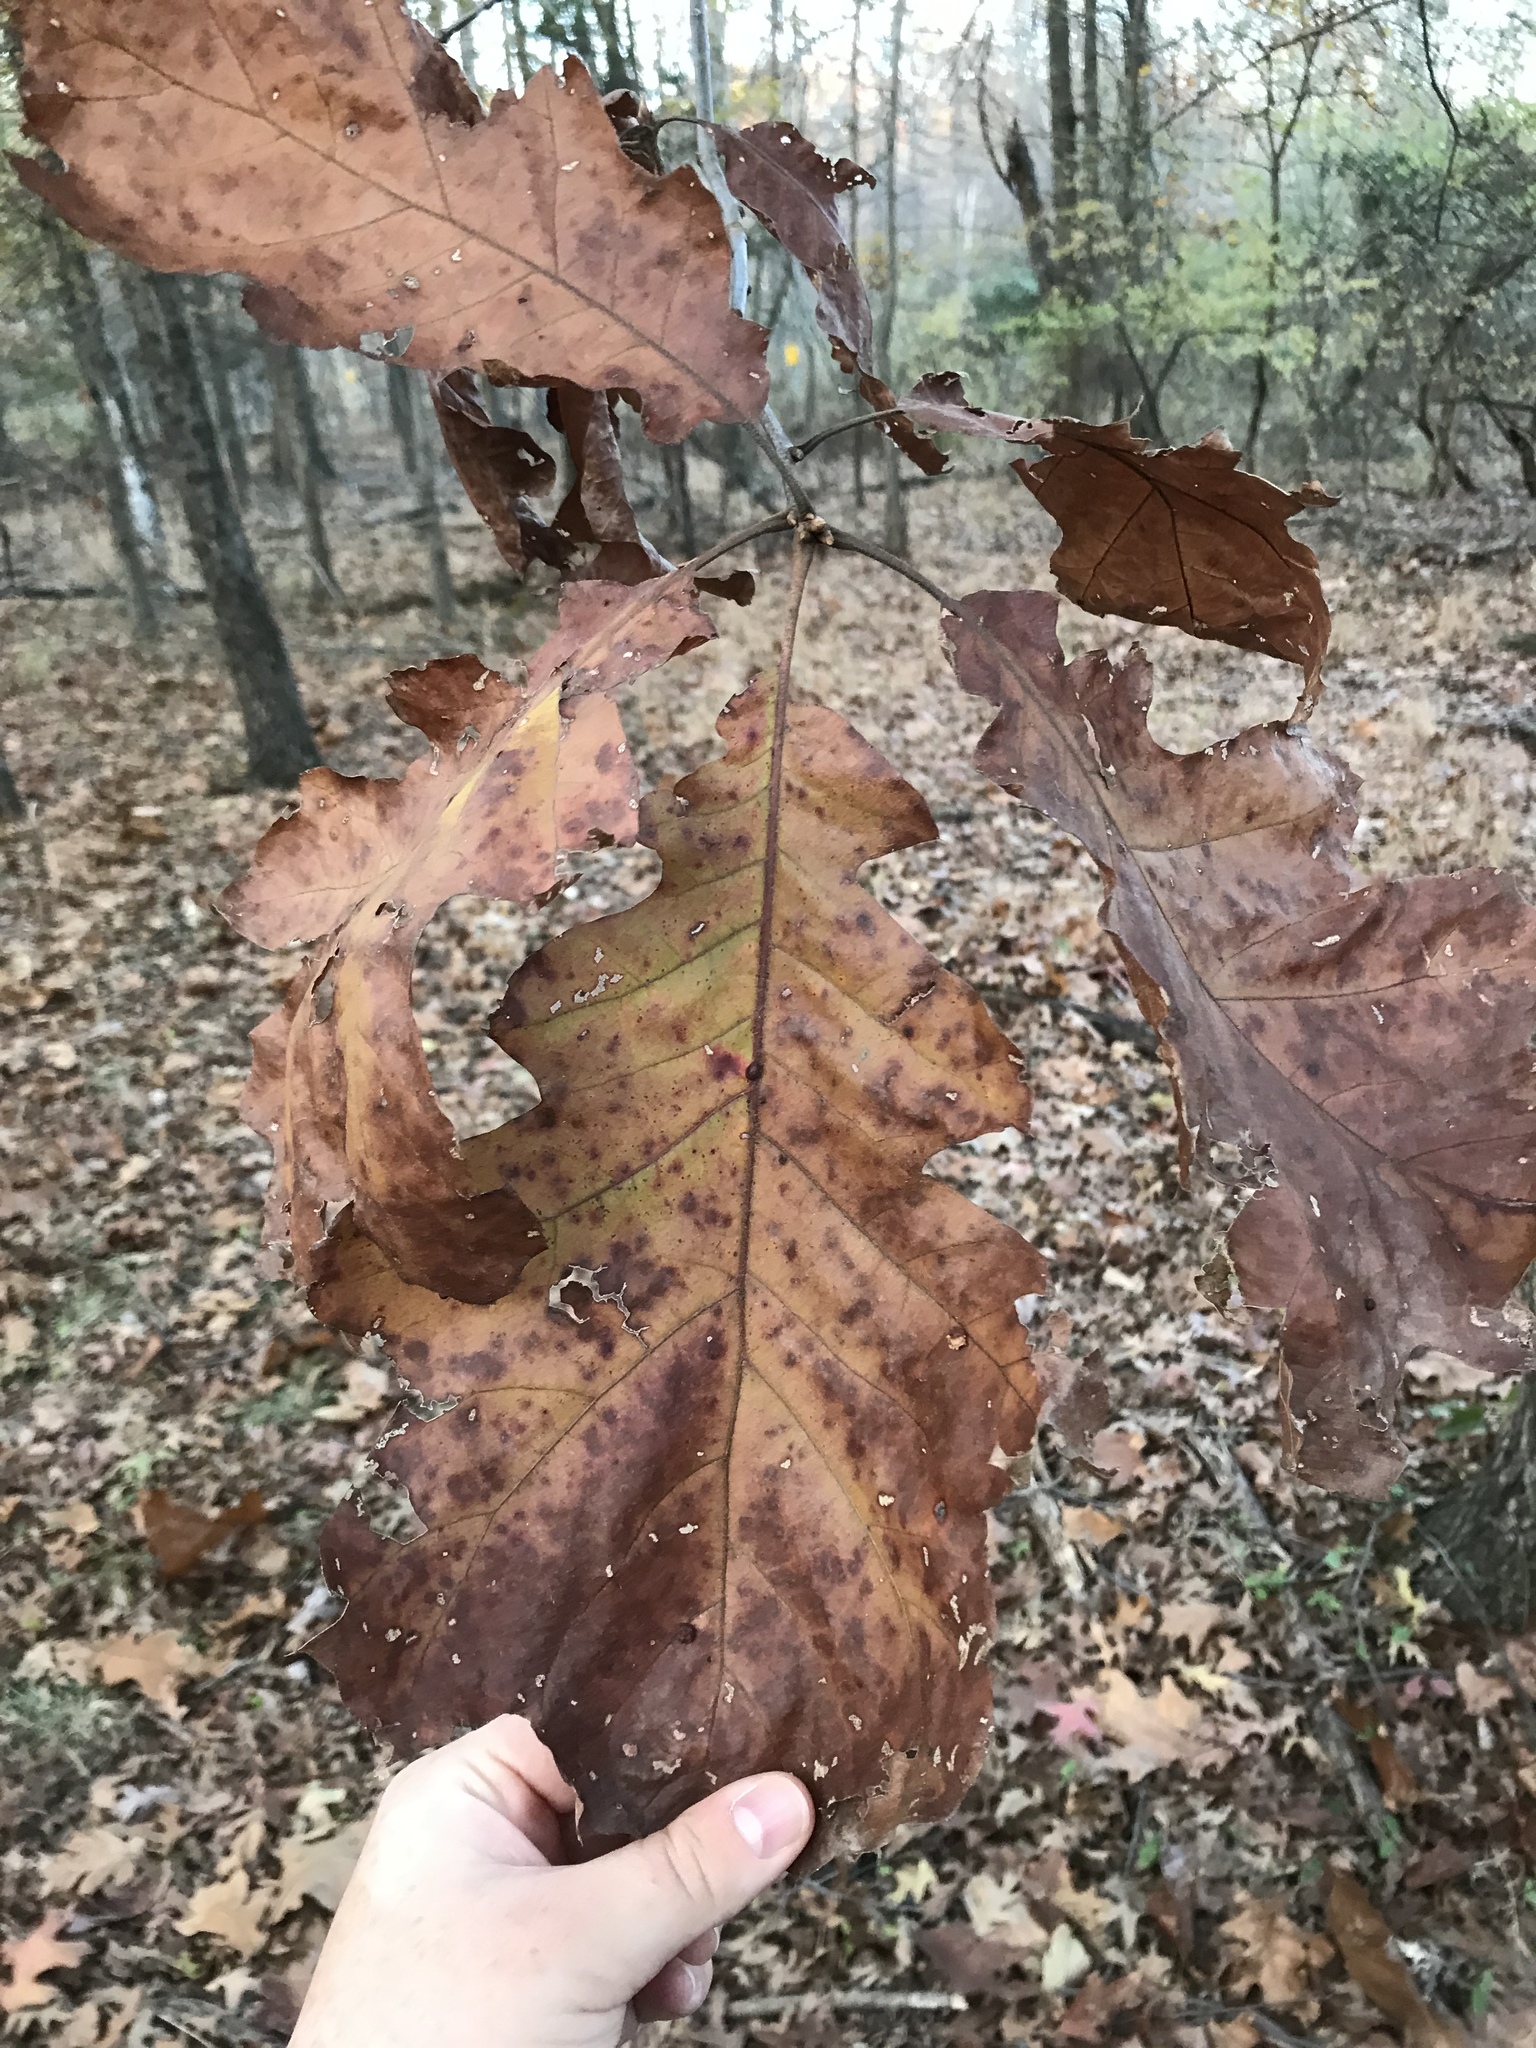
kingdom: Plantae
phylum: Tracheophyta
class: Magnoliopsida
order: Fagales
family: Fagaceae
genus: Quercus
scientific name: Quercus rubra
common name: Red oak
